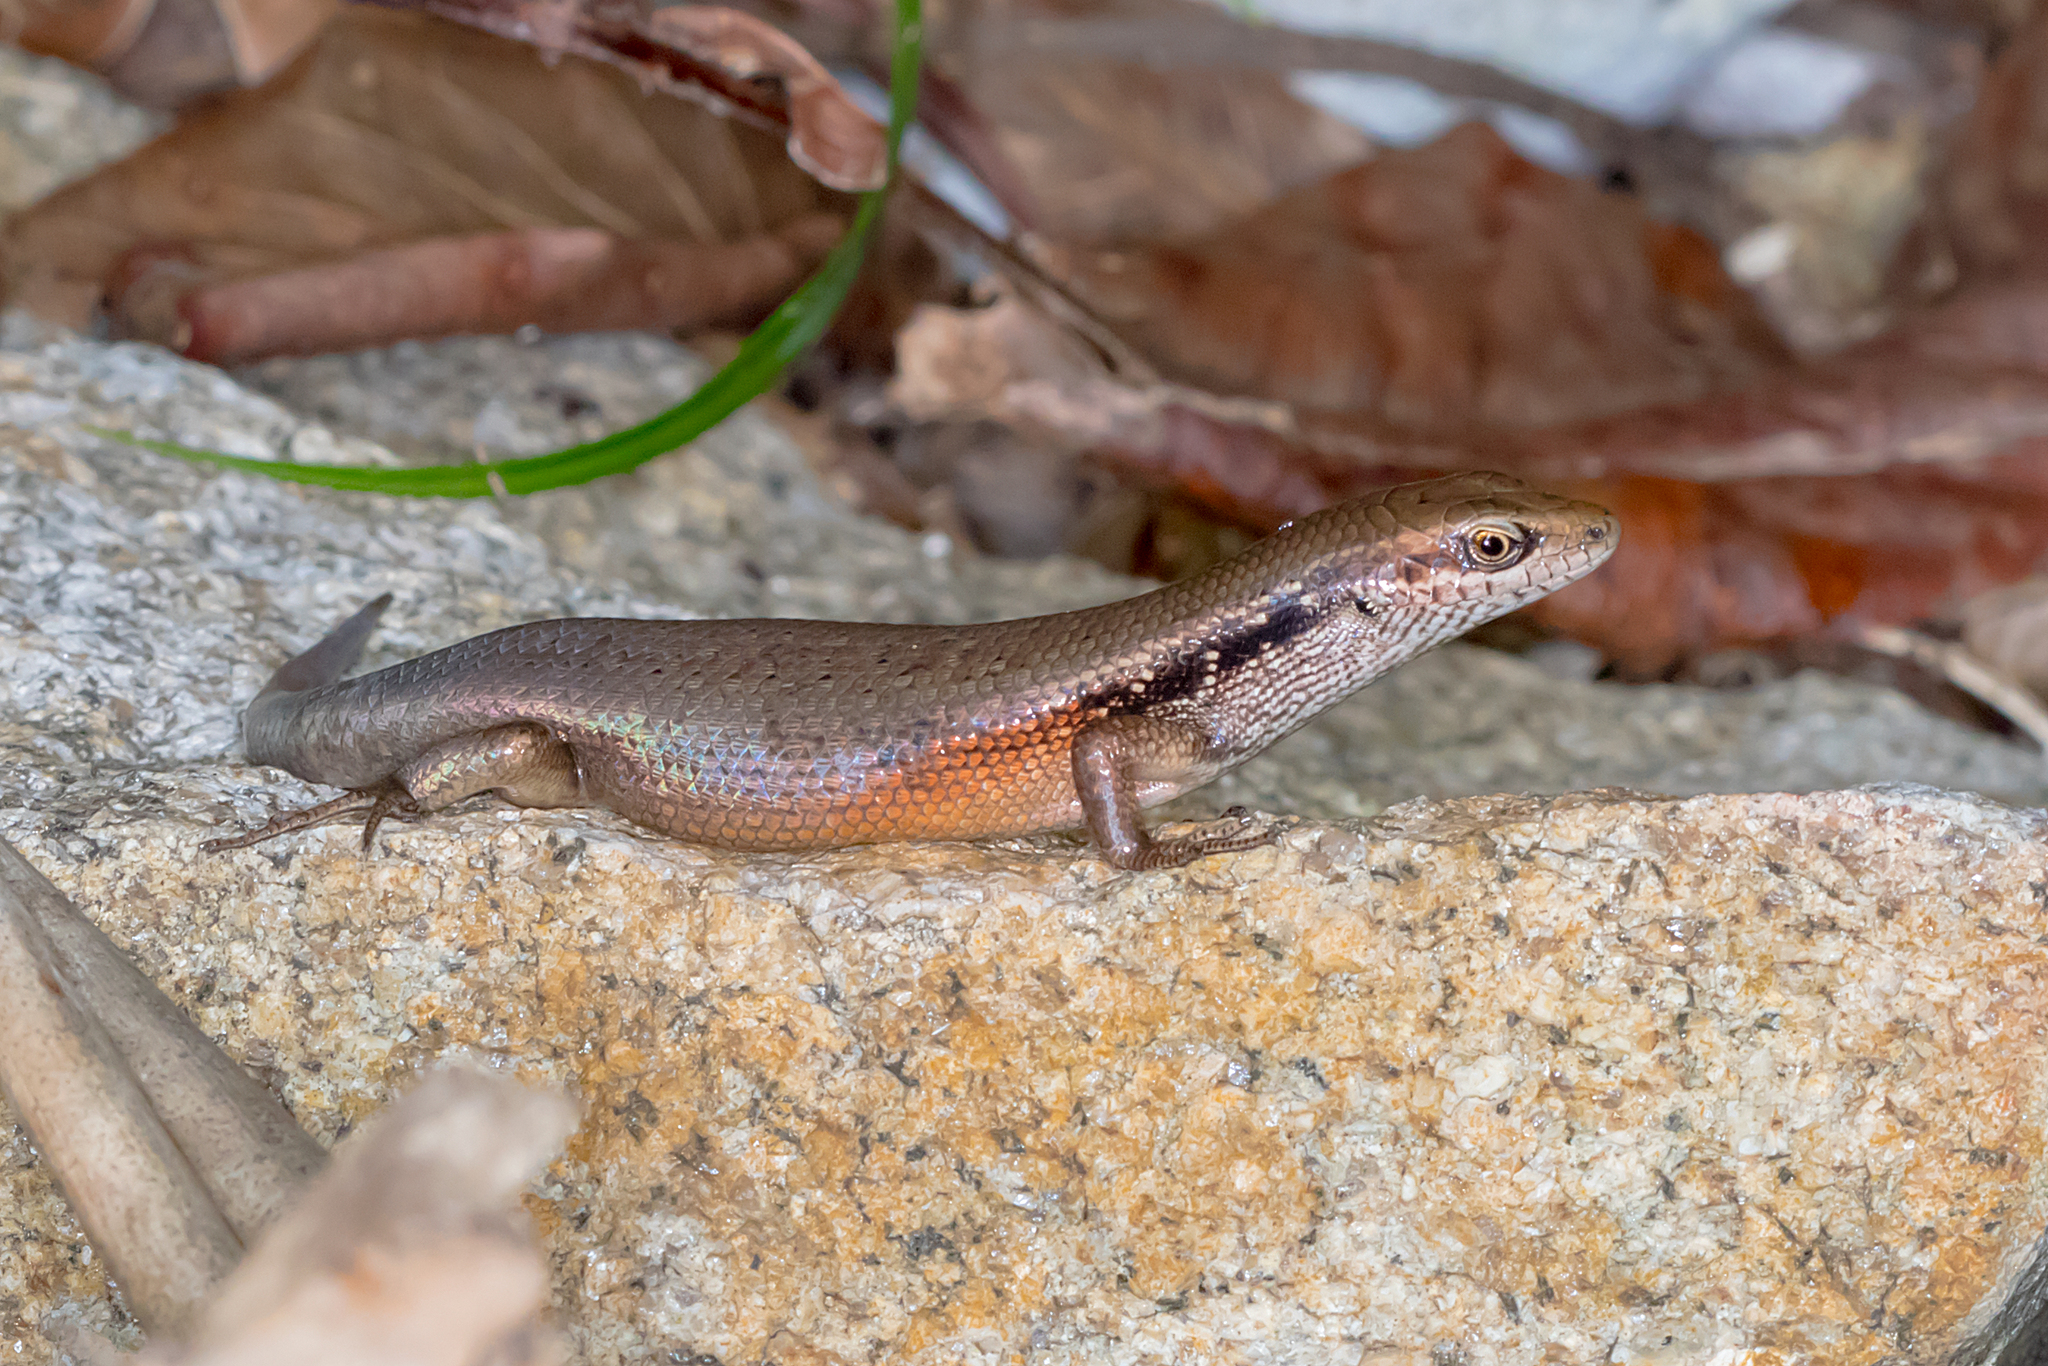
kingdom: Animalia
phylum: Chordata
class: Squamata
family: Scincidae
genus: Carlia
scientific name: Carlia longipes
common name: Closed-litter rainbow-skink
